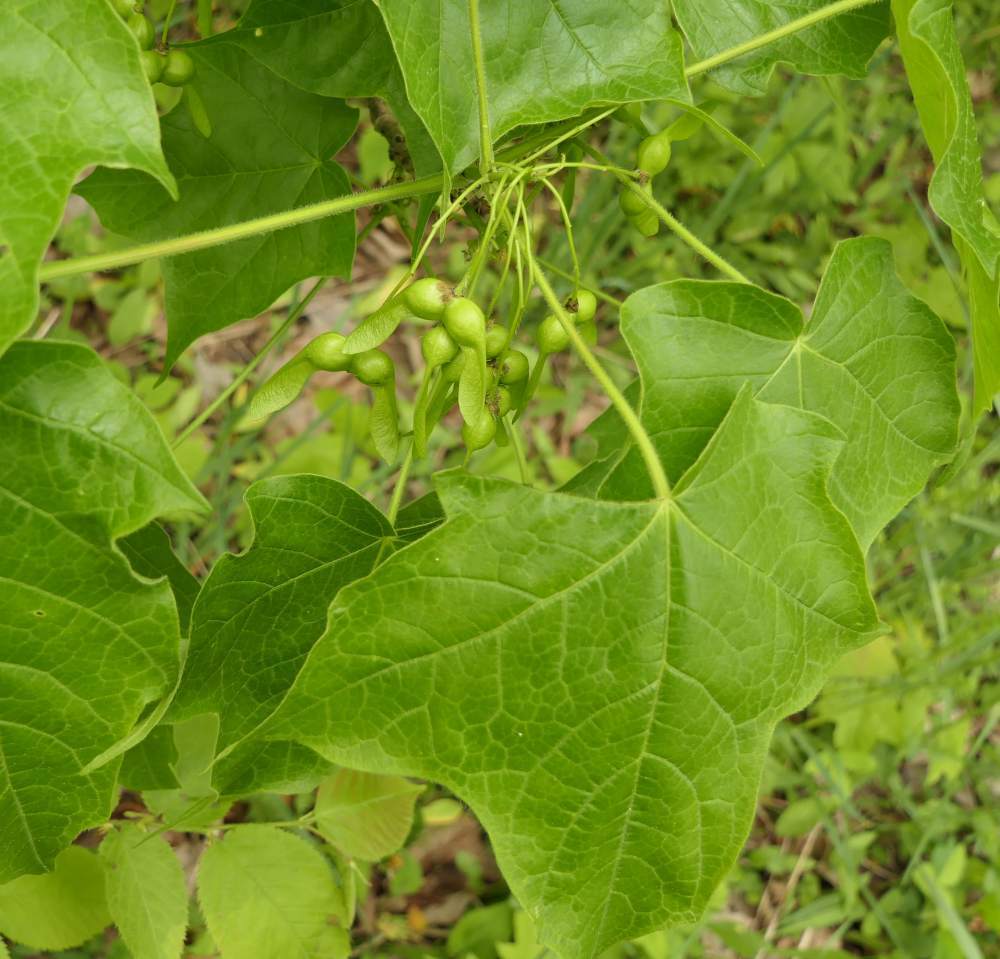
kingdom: Plantae
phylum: Tracheophyta
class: Magnoliopsida
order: Sapindales
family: Sapindaceae
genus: Acer
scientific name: Acer nigrum
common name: Black maple
